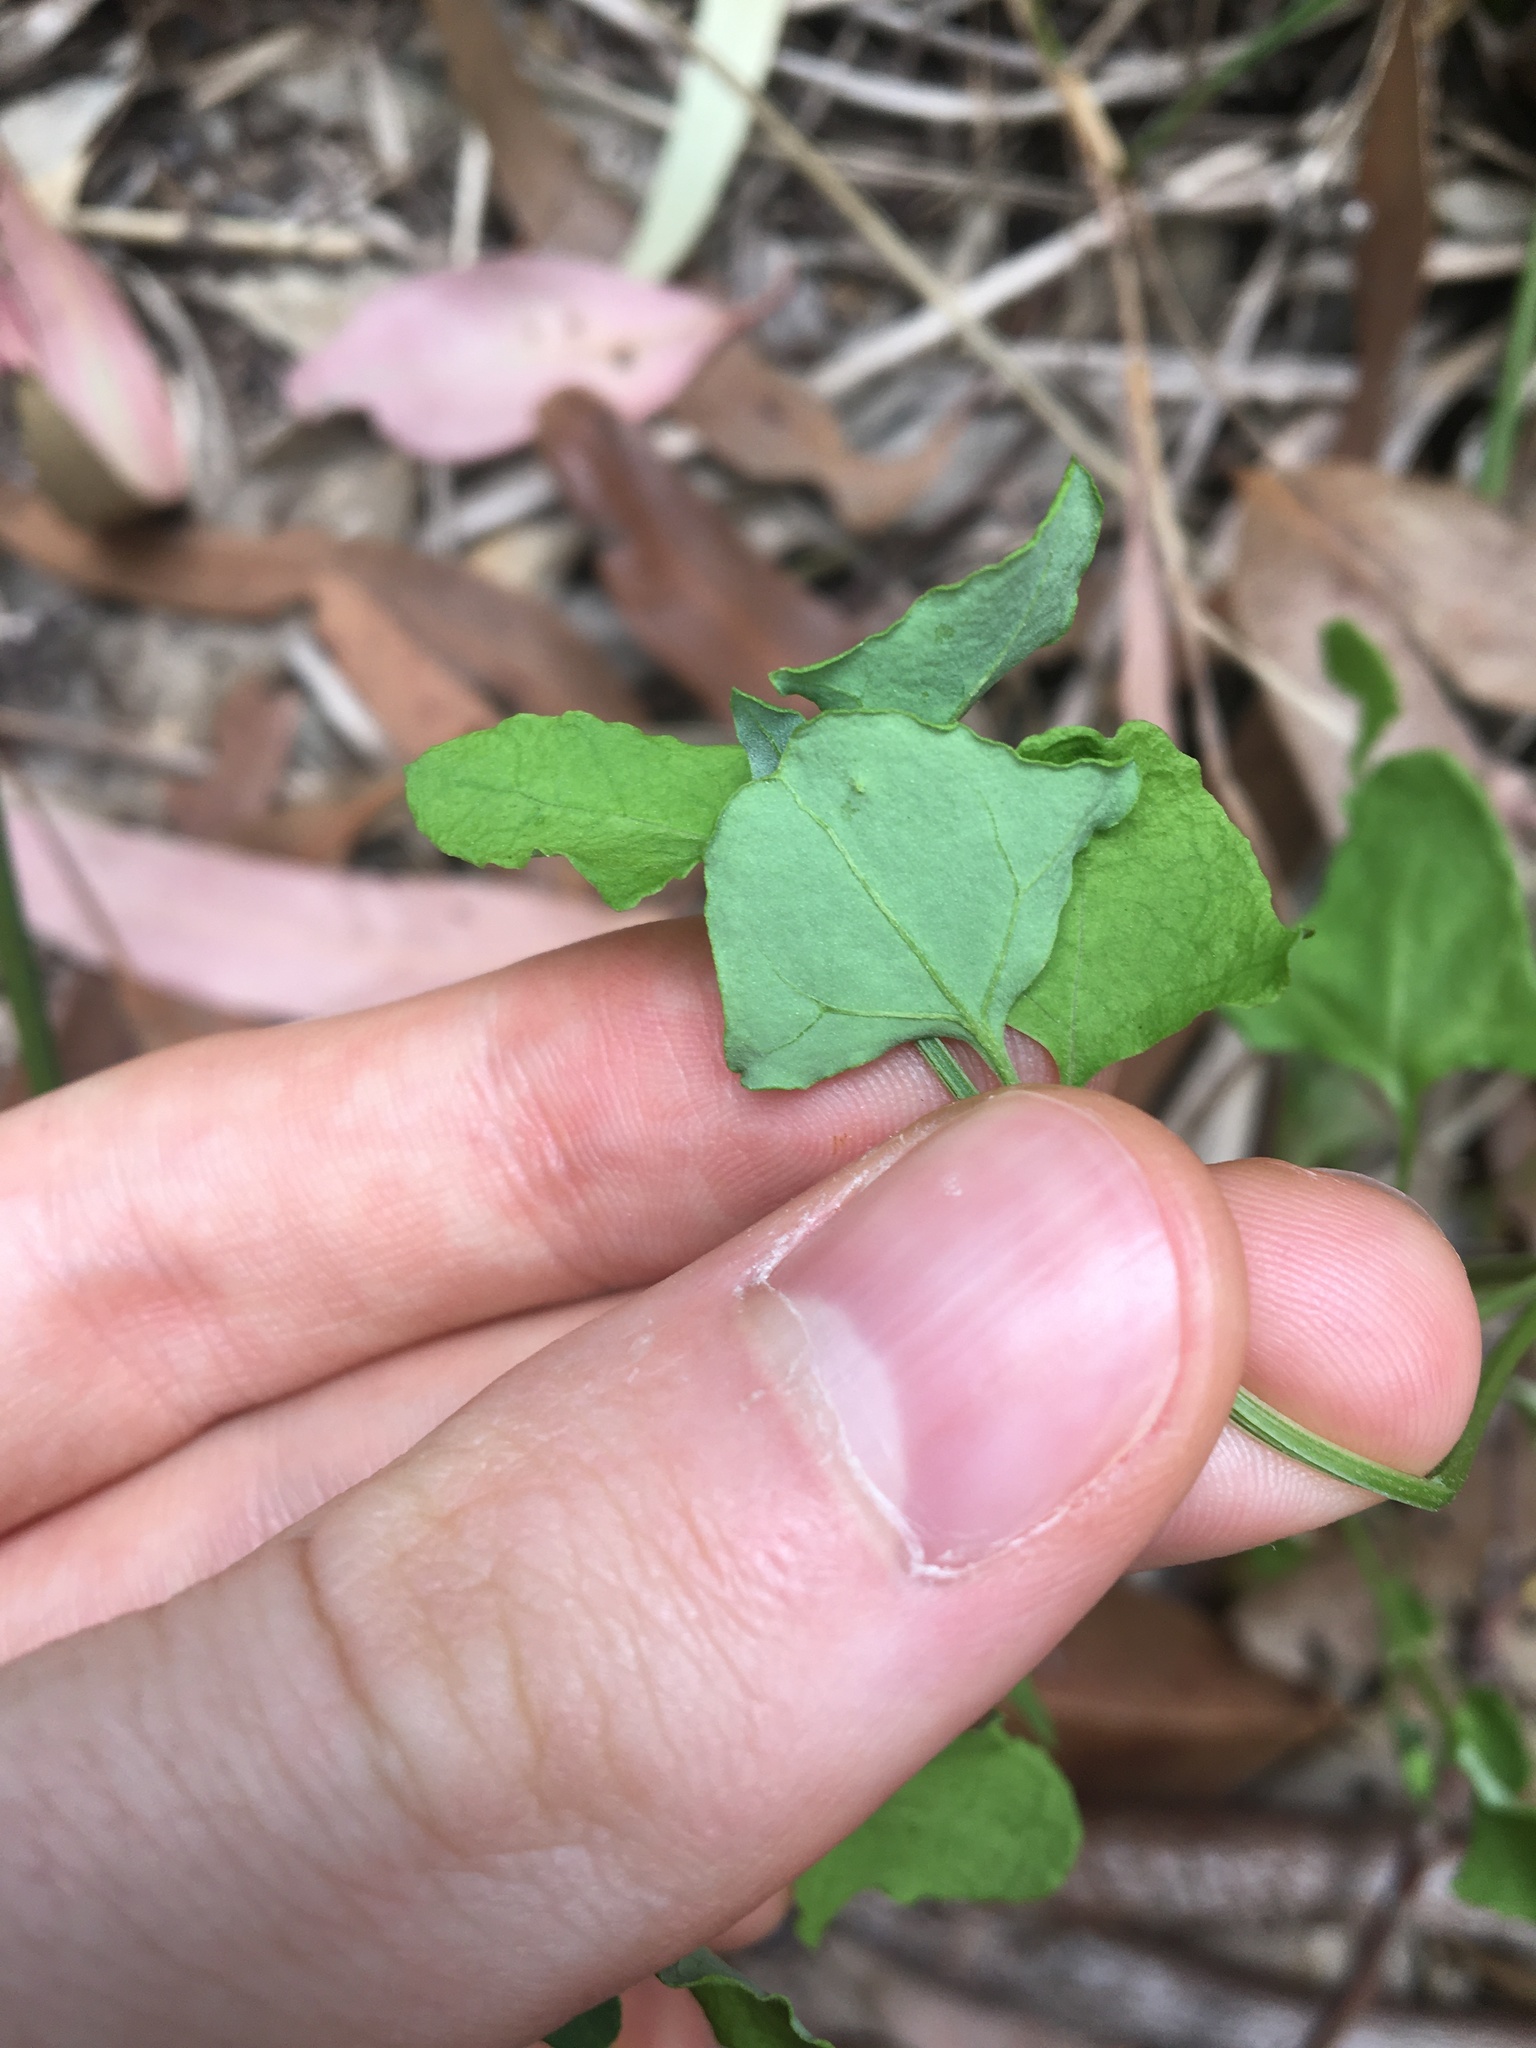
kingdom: Plantae
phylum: Tracheophyta
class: Magnoliopsida
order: Caryophyllales
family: Amaranthaceae
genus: Chenopodium
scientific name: Chenopodium album
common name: Fat-hen
